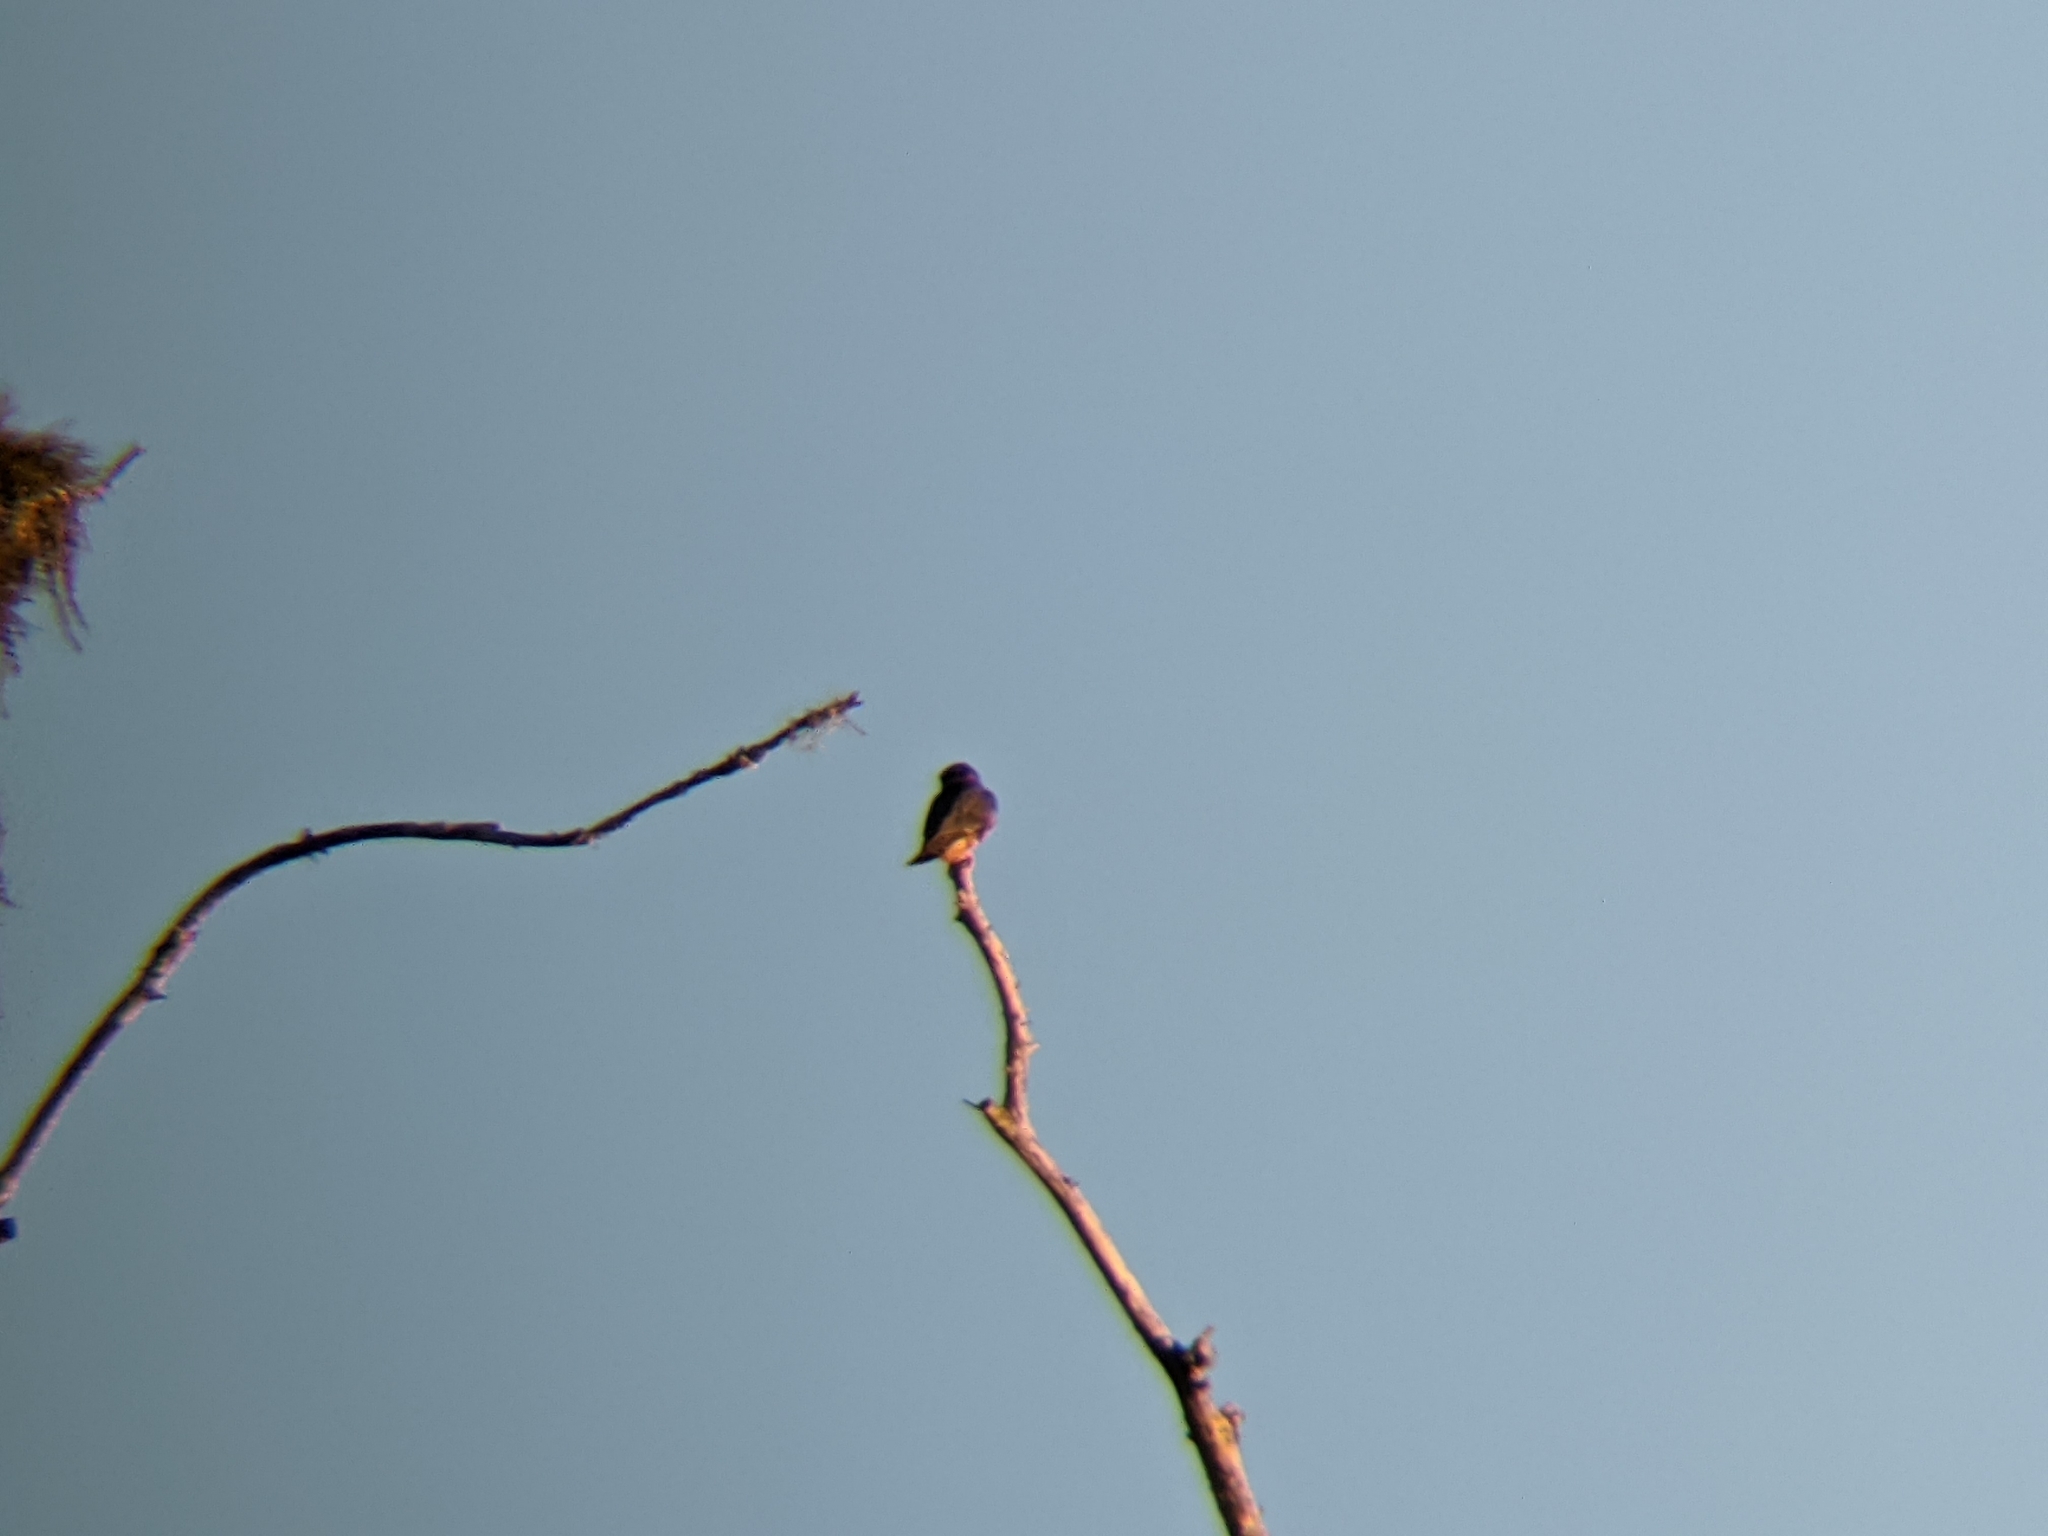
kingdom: Animalia
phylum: Chordata
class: Aves
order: Falconiformes
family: Falconidae
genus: Falco
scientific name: Falco columbarius
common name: Merlin
